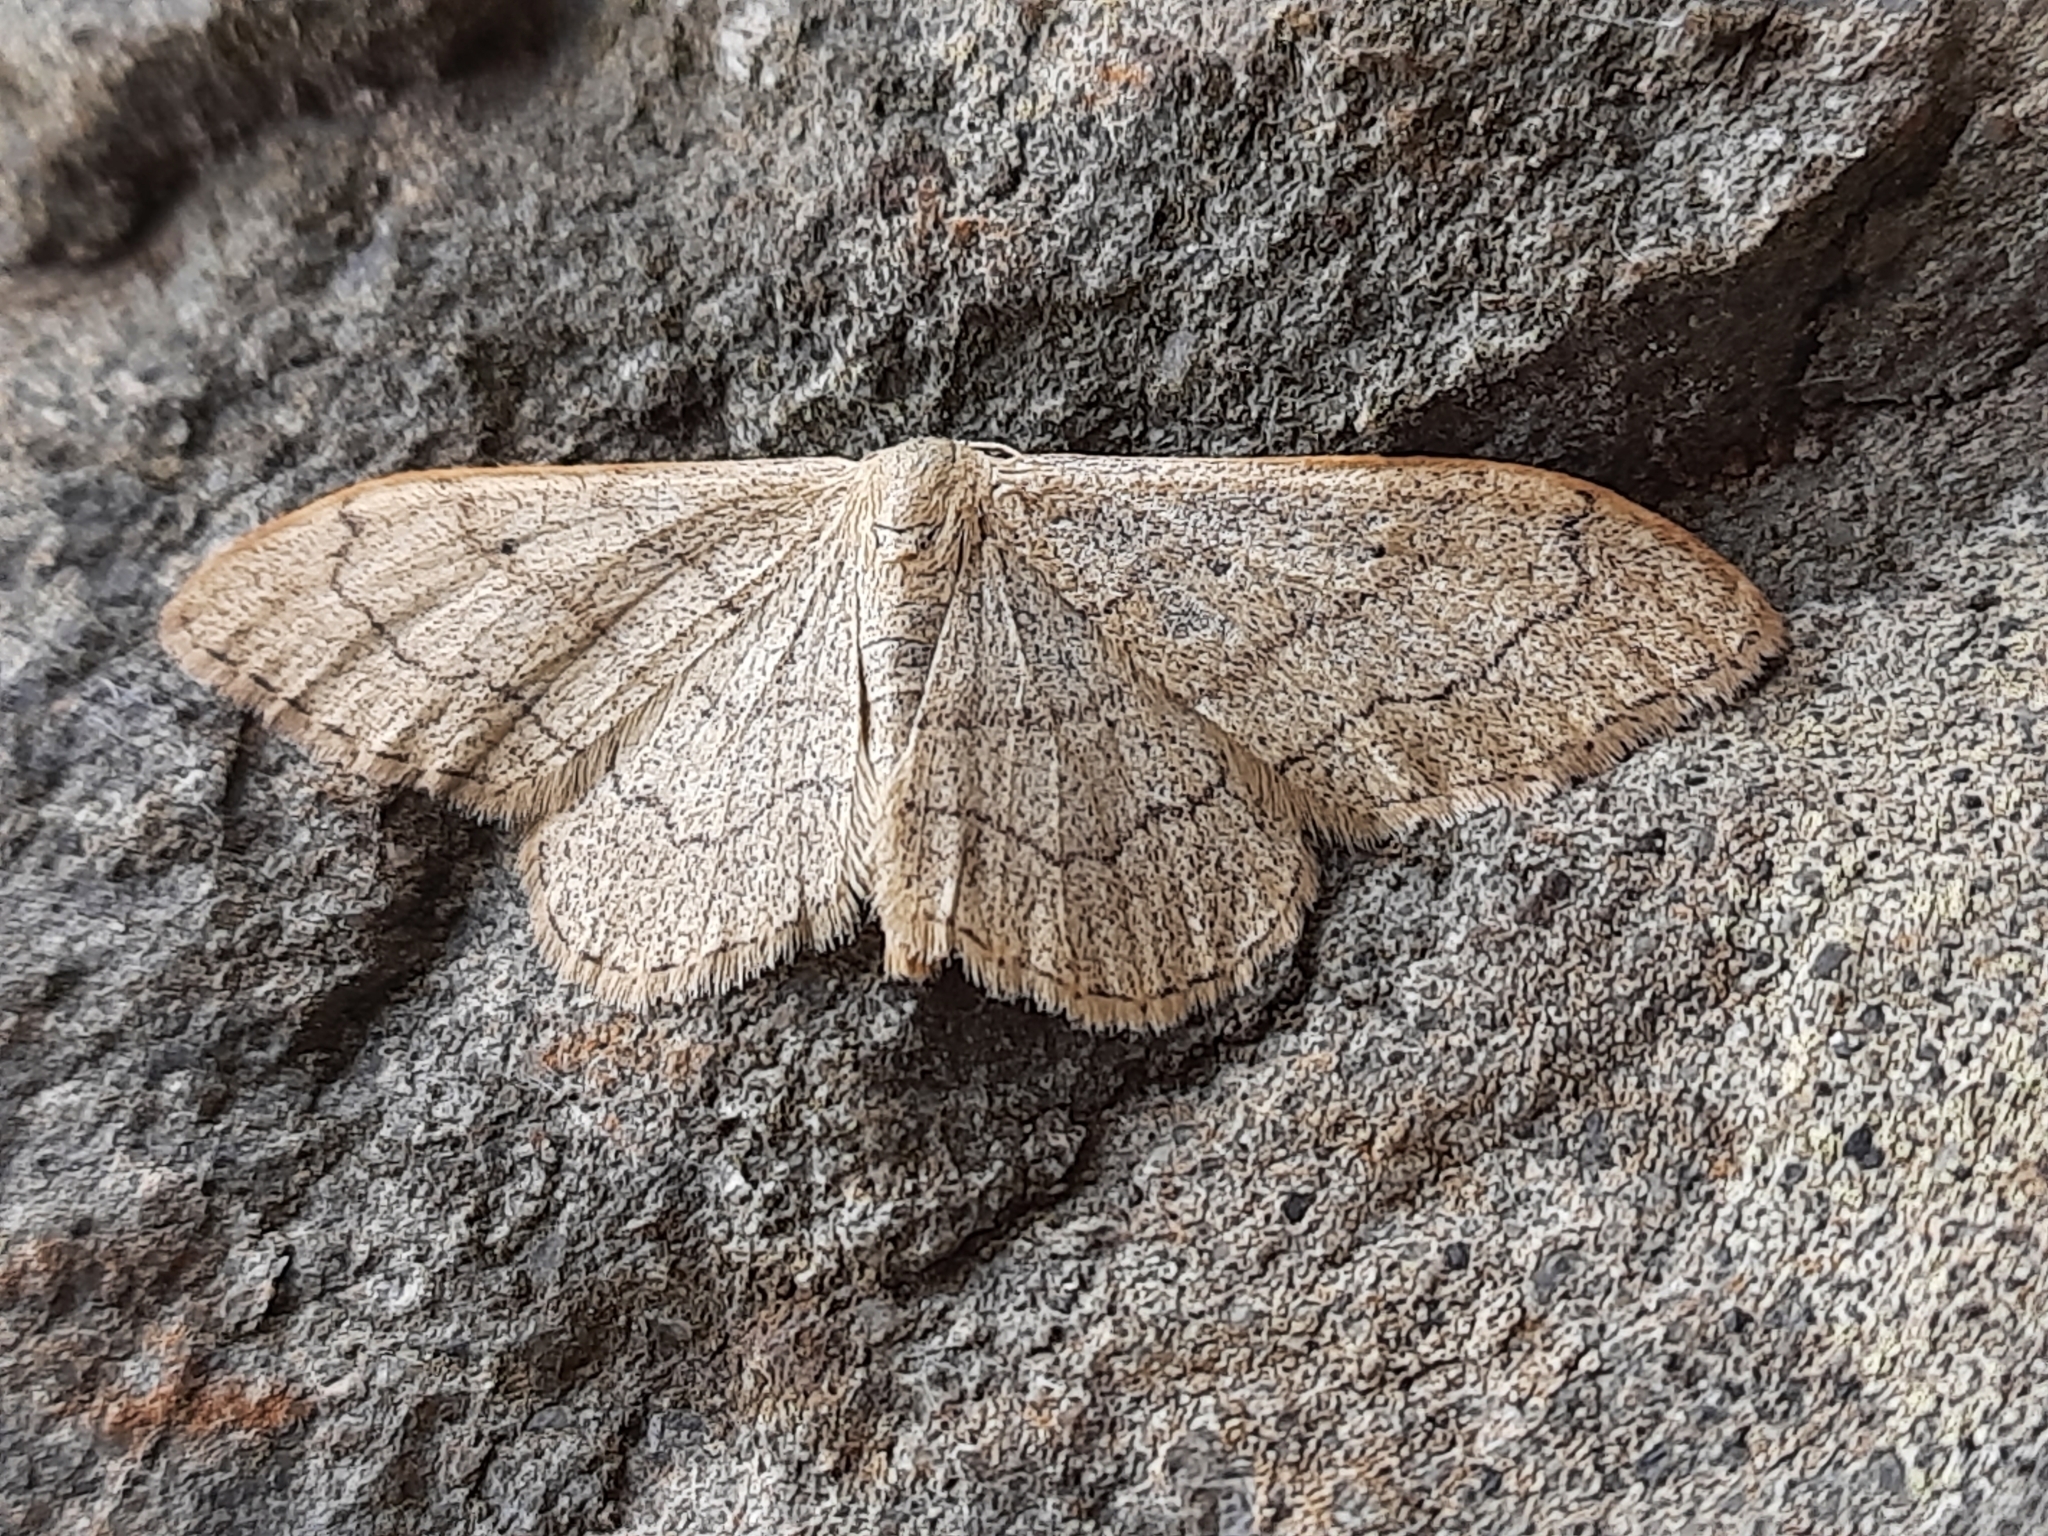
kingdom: Animalia
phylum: Arthropoda
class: Insecta
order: Lepidoptera
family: Geometridae
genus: Idaea
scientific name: Idaea aversata
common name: Riband wave
